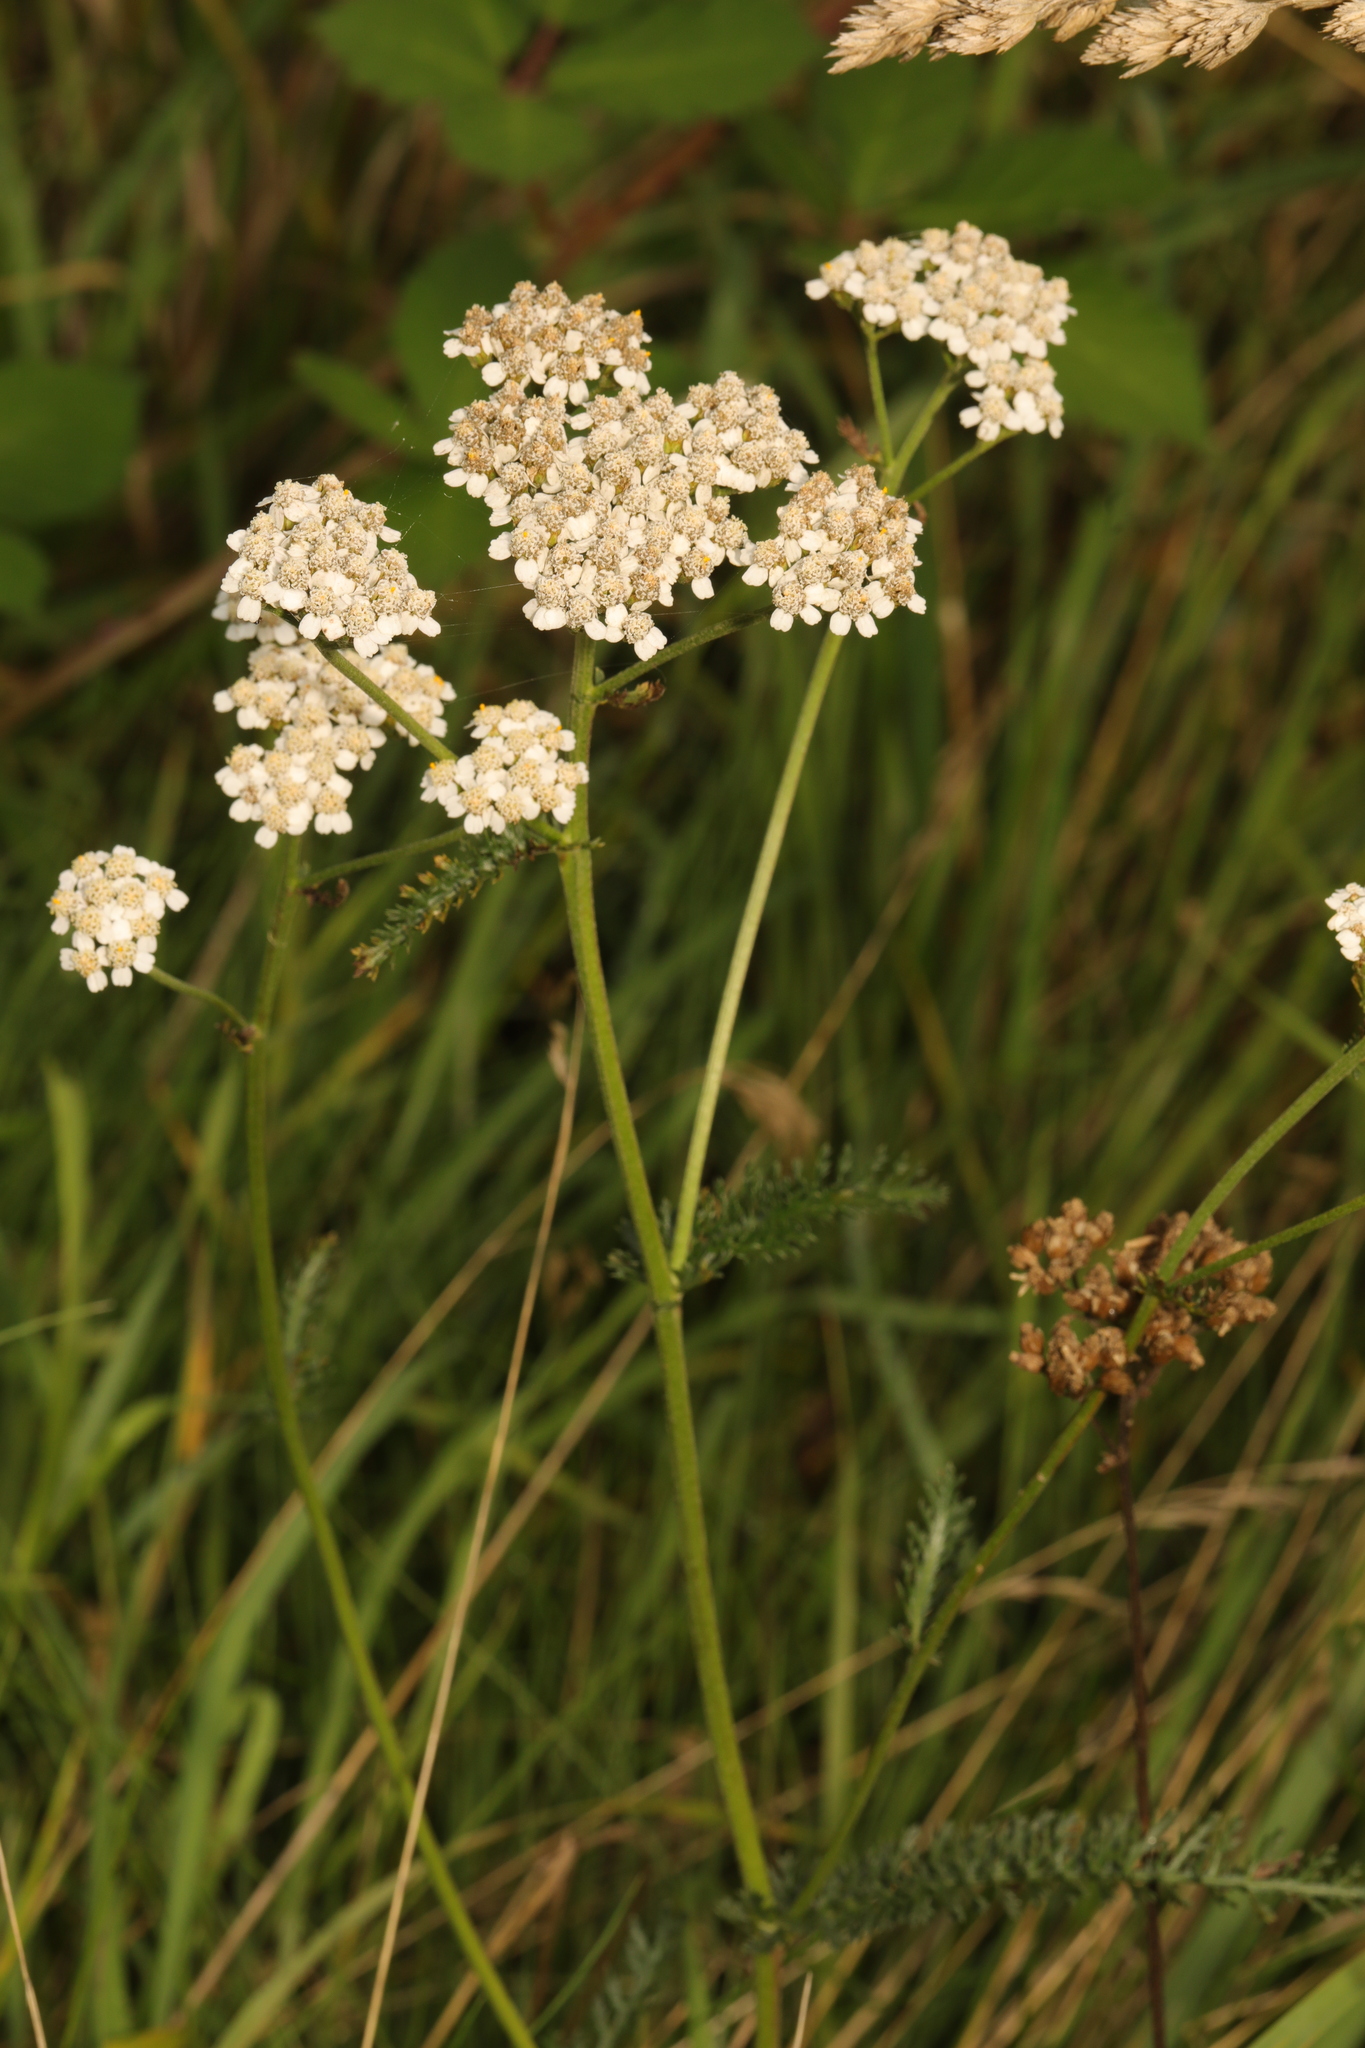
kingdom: Plantae
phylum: Tracheophyta
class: Magnoliopsida
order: Asterales
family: Asteraceae
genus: Achillea
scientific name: Achillea millefolium
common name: Yarrow
